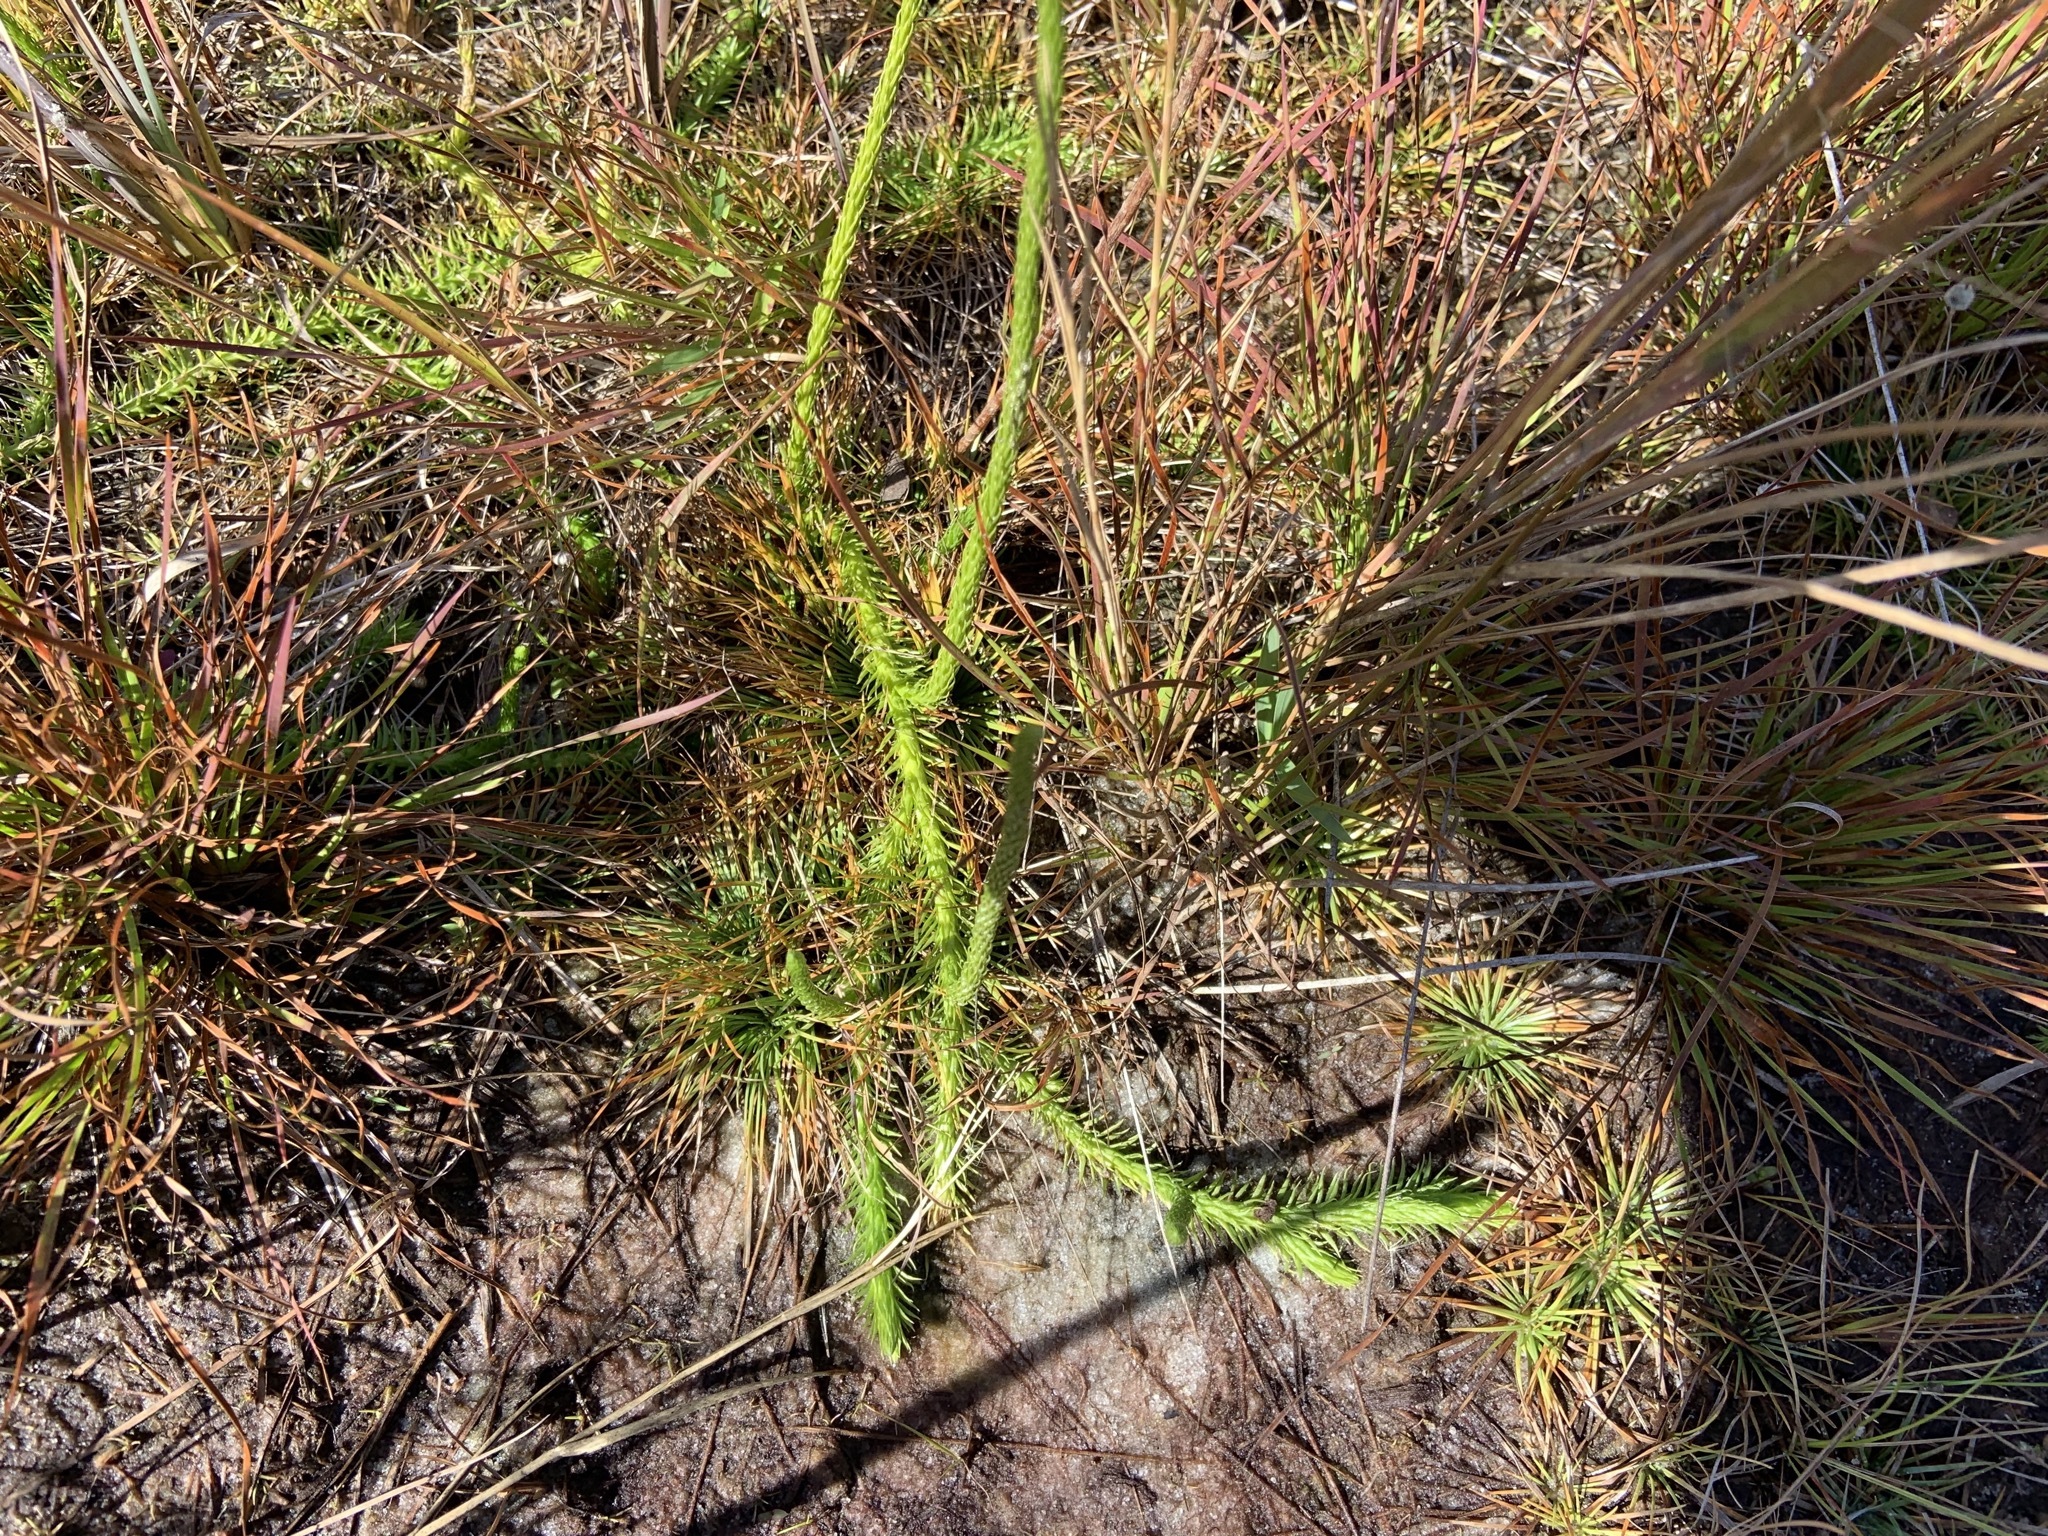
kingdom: Plantae
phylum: Tracheophyta
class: Lycopodiopsida
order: Lycopodiales
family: Lycopodiaceae
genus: Lycopodiella
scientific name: Lycopodiella appressa
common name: Appressed bog clubmoss
